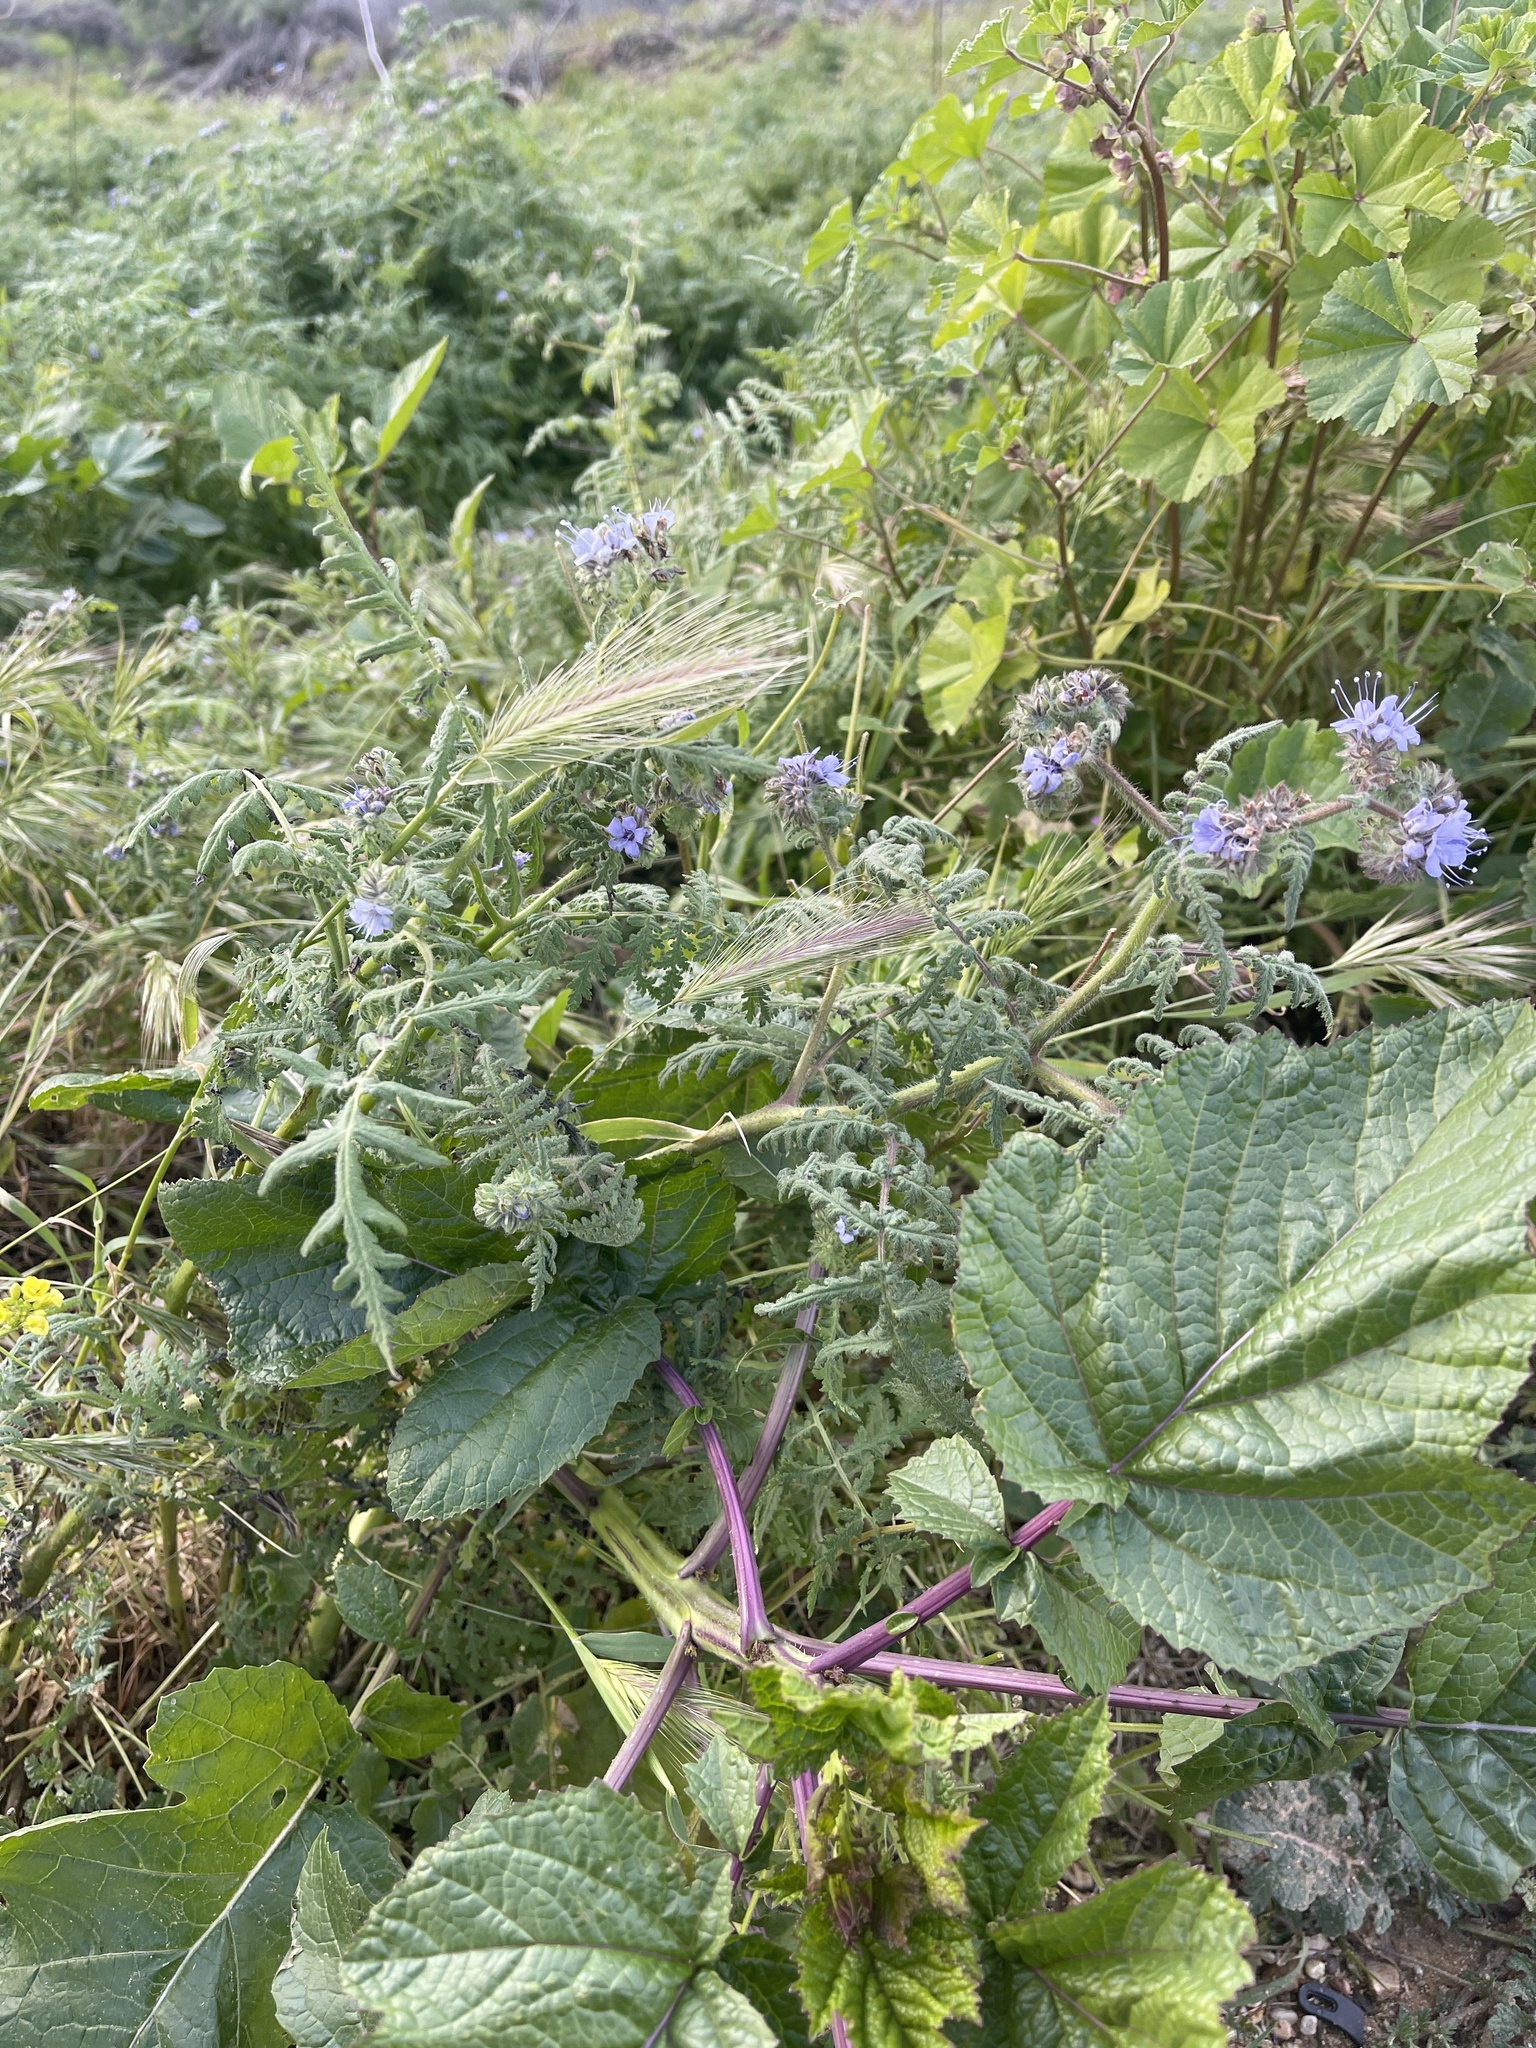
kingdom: Plantae
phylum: Tracheophyta
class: Magnoliopsida
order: Boraginales
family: Hydrophyllaceae
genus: Phacelia
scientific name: Phacelia distans
